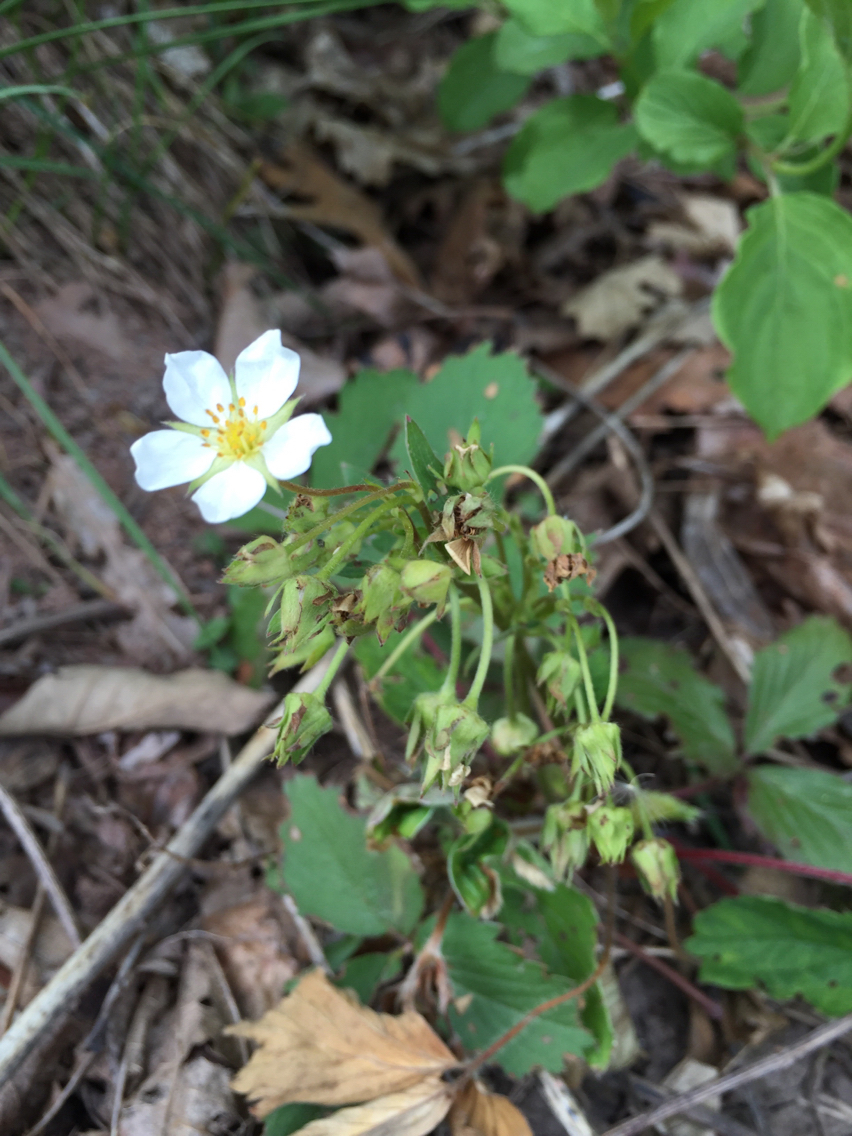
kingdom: Plantae
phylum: Tracheophyta
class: Magnoliopsida
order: Rosales
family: Rosaceae
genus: Fragaria
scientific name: Fragaria virginiana
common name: Thickleaved wild strawberry
